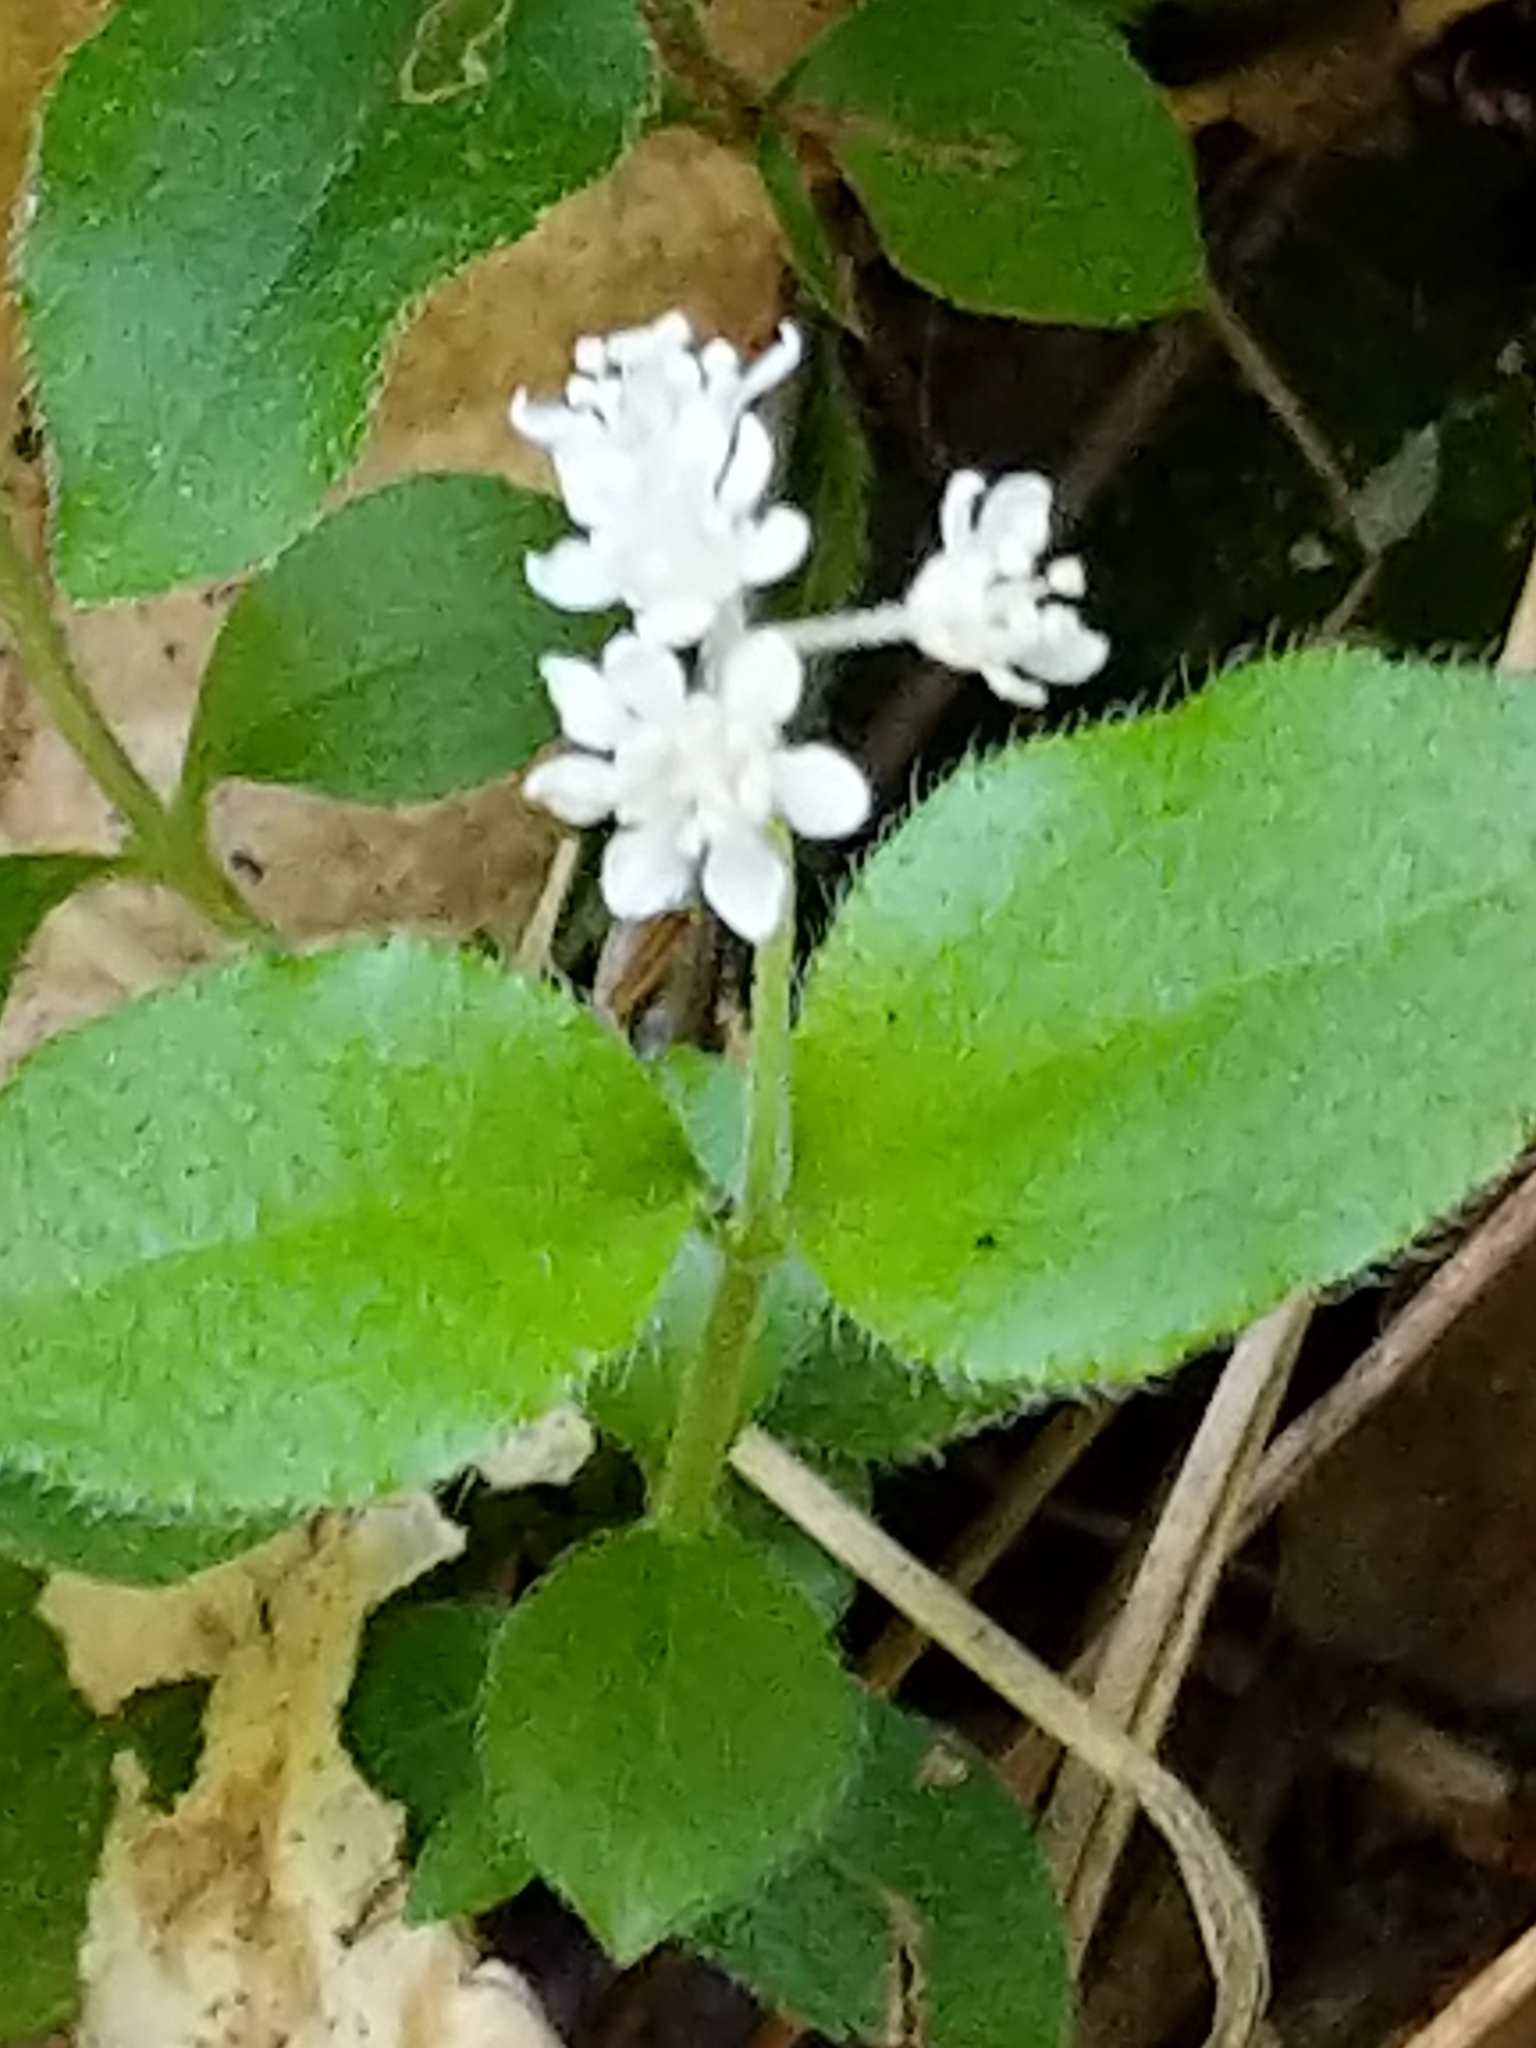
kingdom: Plantae
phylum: Tracheophyta
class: Magnoliopsida
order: Cornales
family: Hydrangeaceae
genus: Whipplea
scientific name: Whipplea modesta
